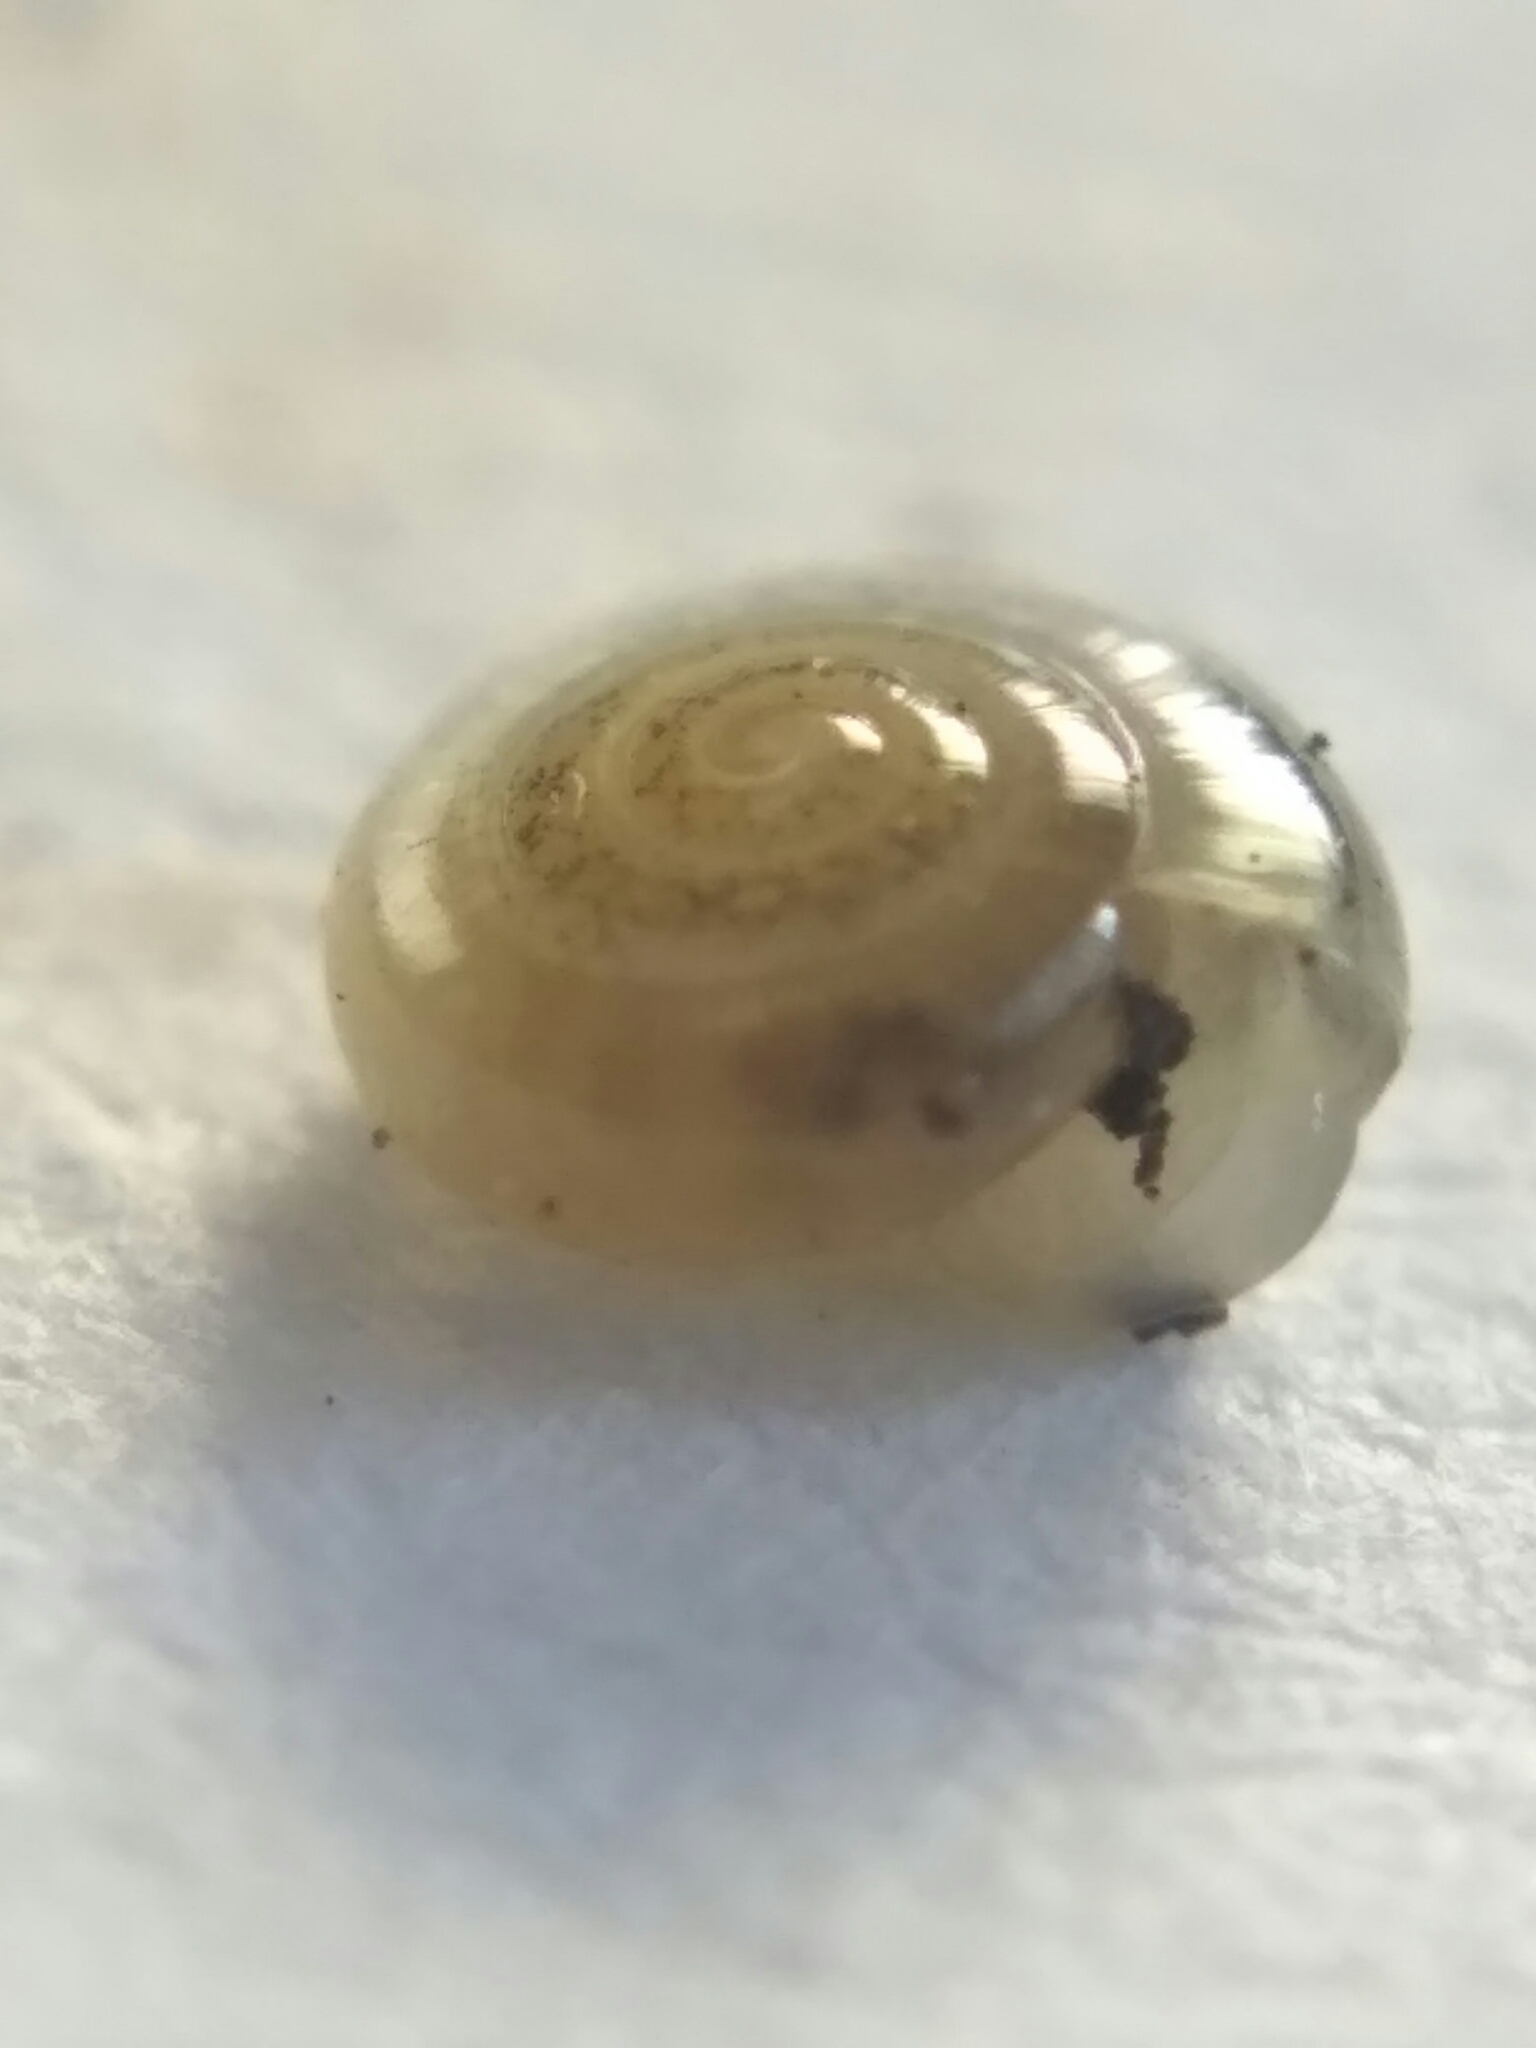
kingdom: Animalia
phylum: Mollusca
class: Gastropoda
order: Stylommatophora
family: Pristilomatidae
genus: Vitrea
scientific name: Vitrea crystallina
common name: Crystal snail
